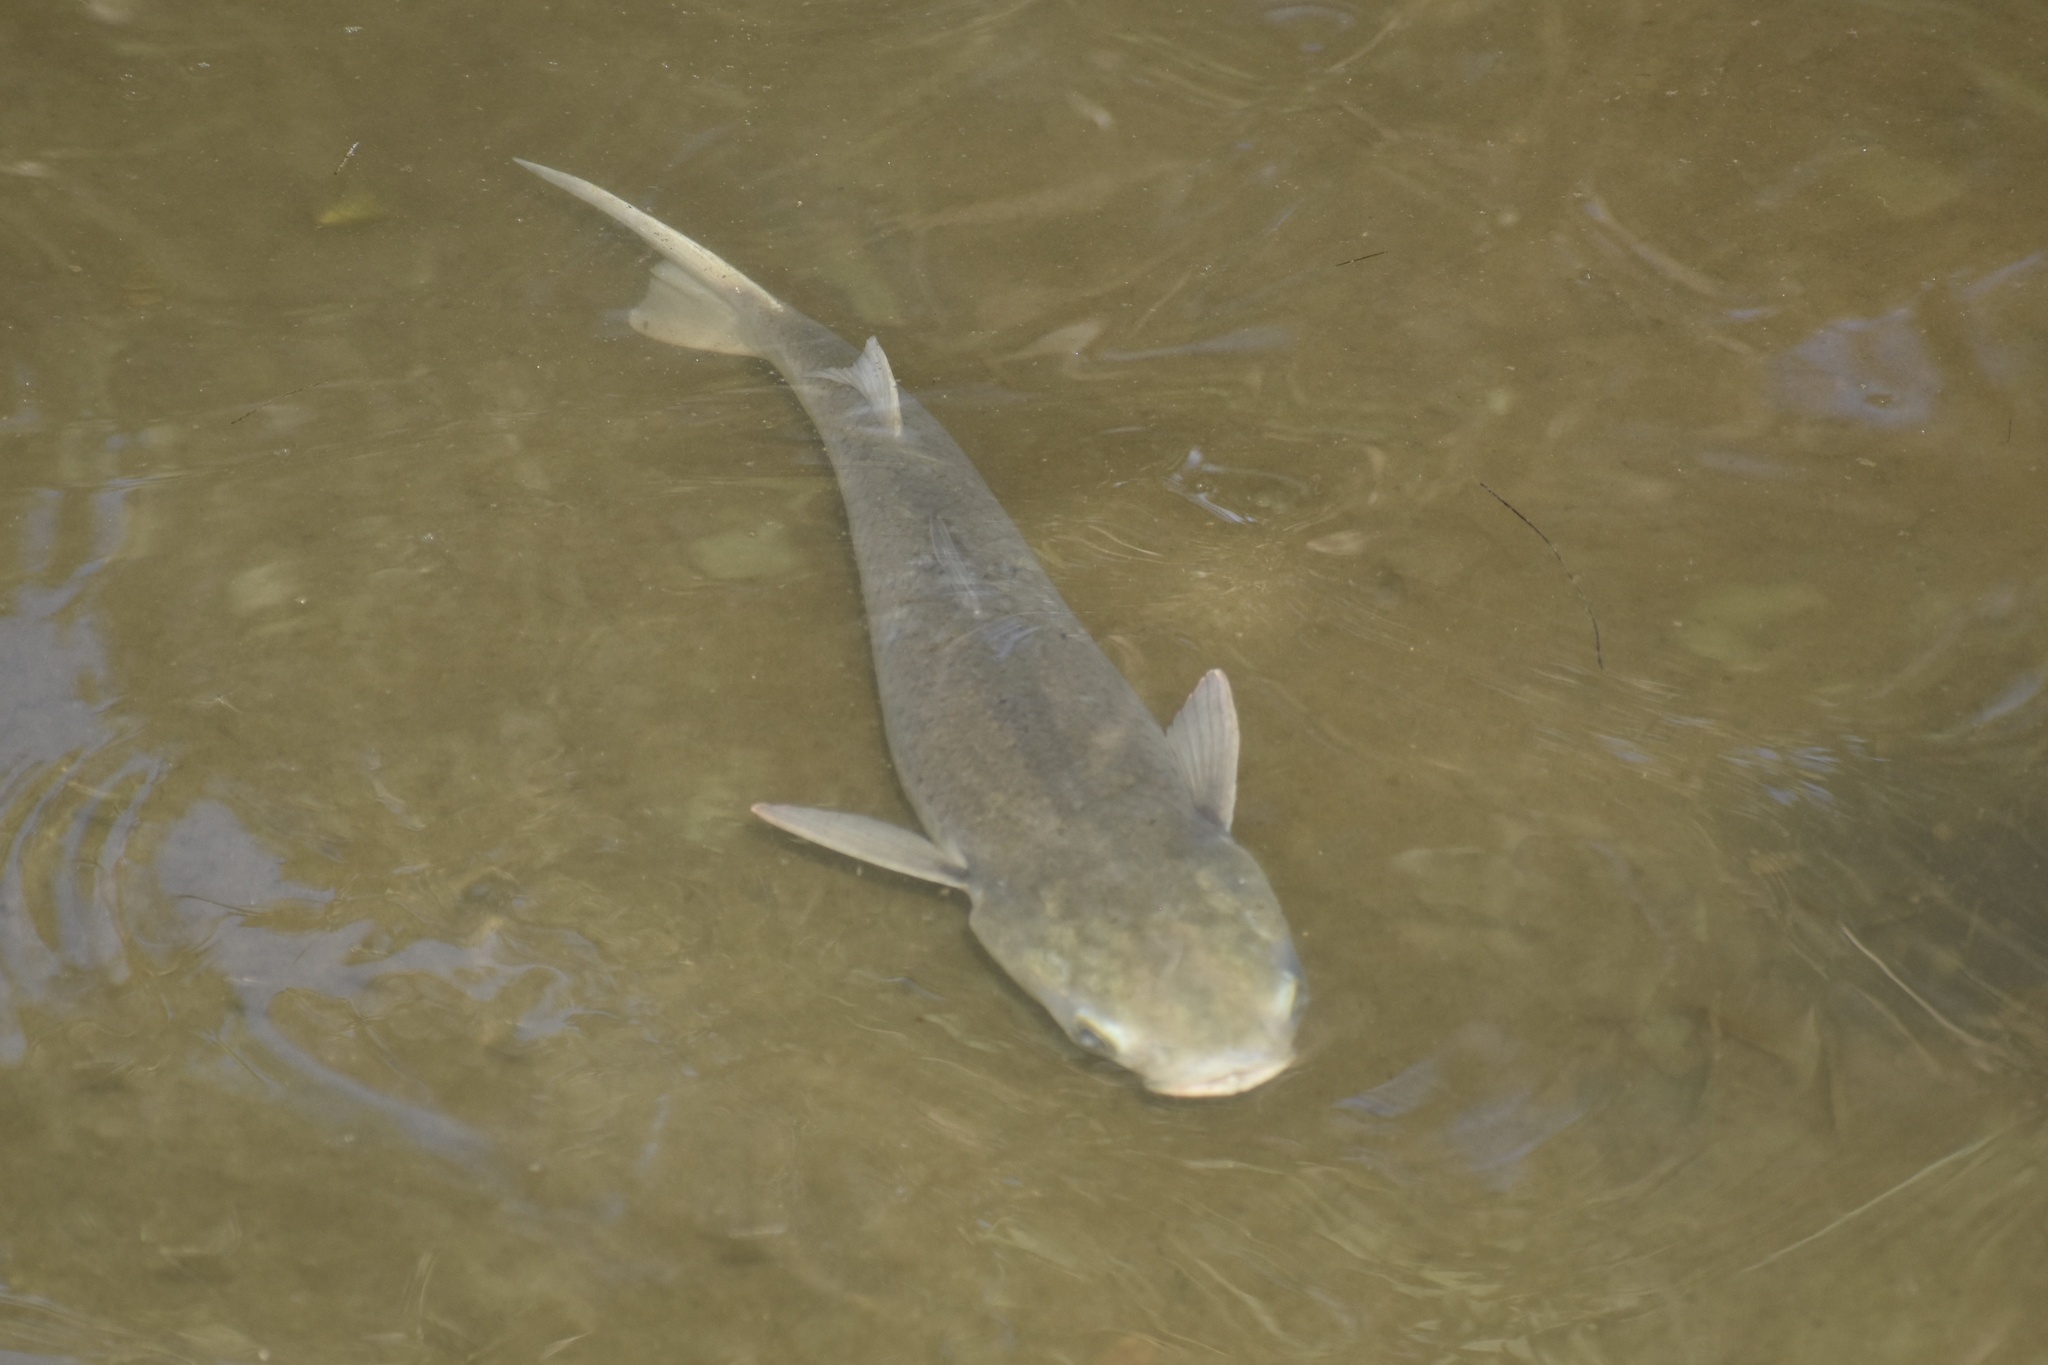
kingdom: Animalia
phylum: Chordata
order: Mugiliformes
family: Mugilidae
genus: Mugil
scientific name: Mugil cephalus
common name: Grey mullet
